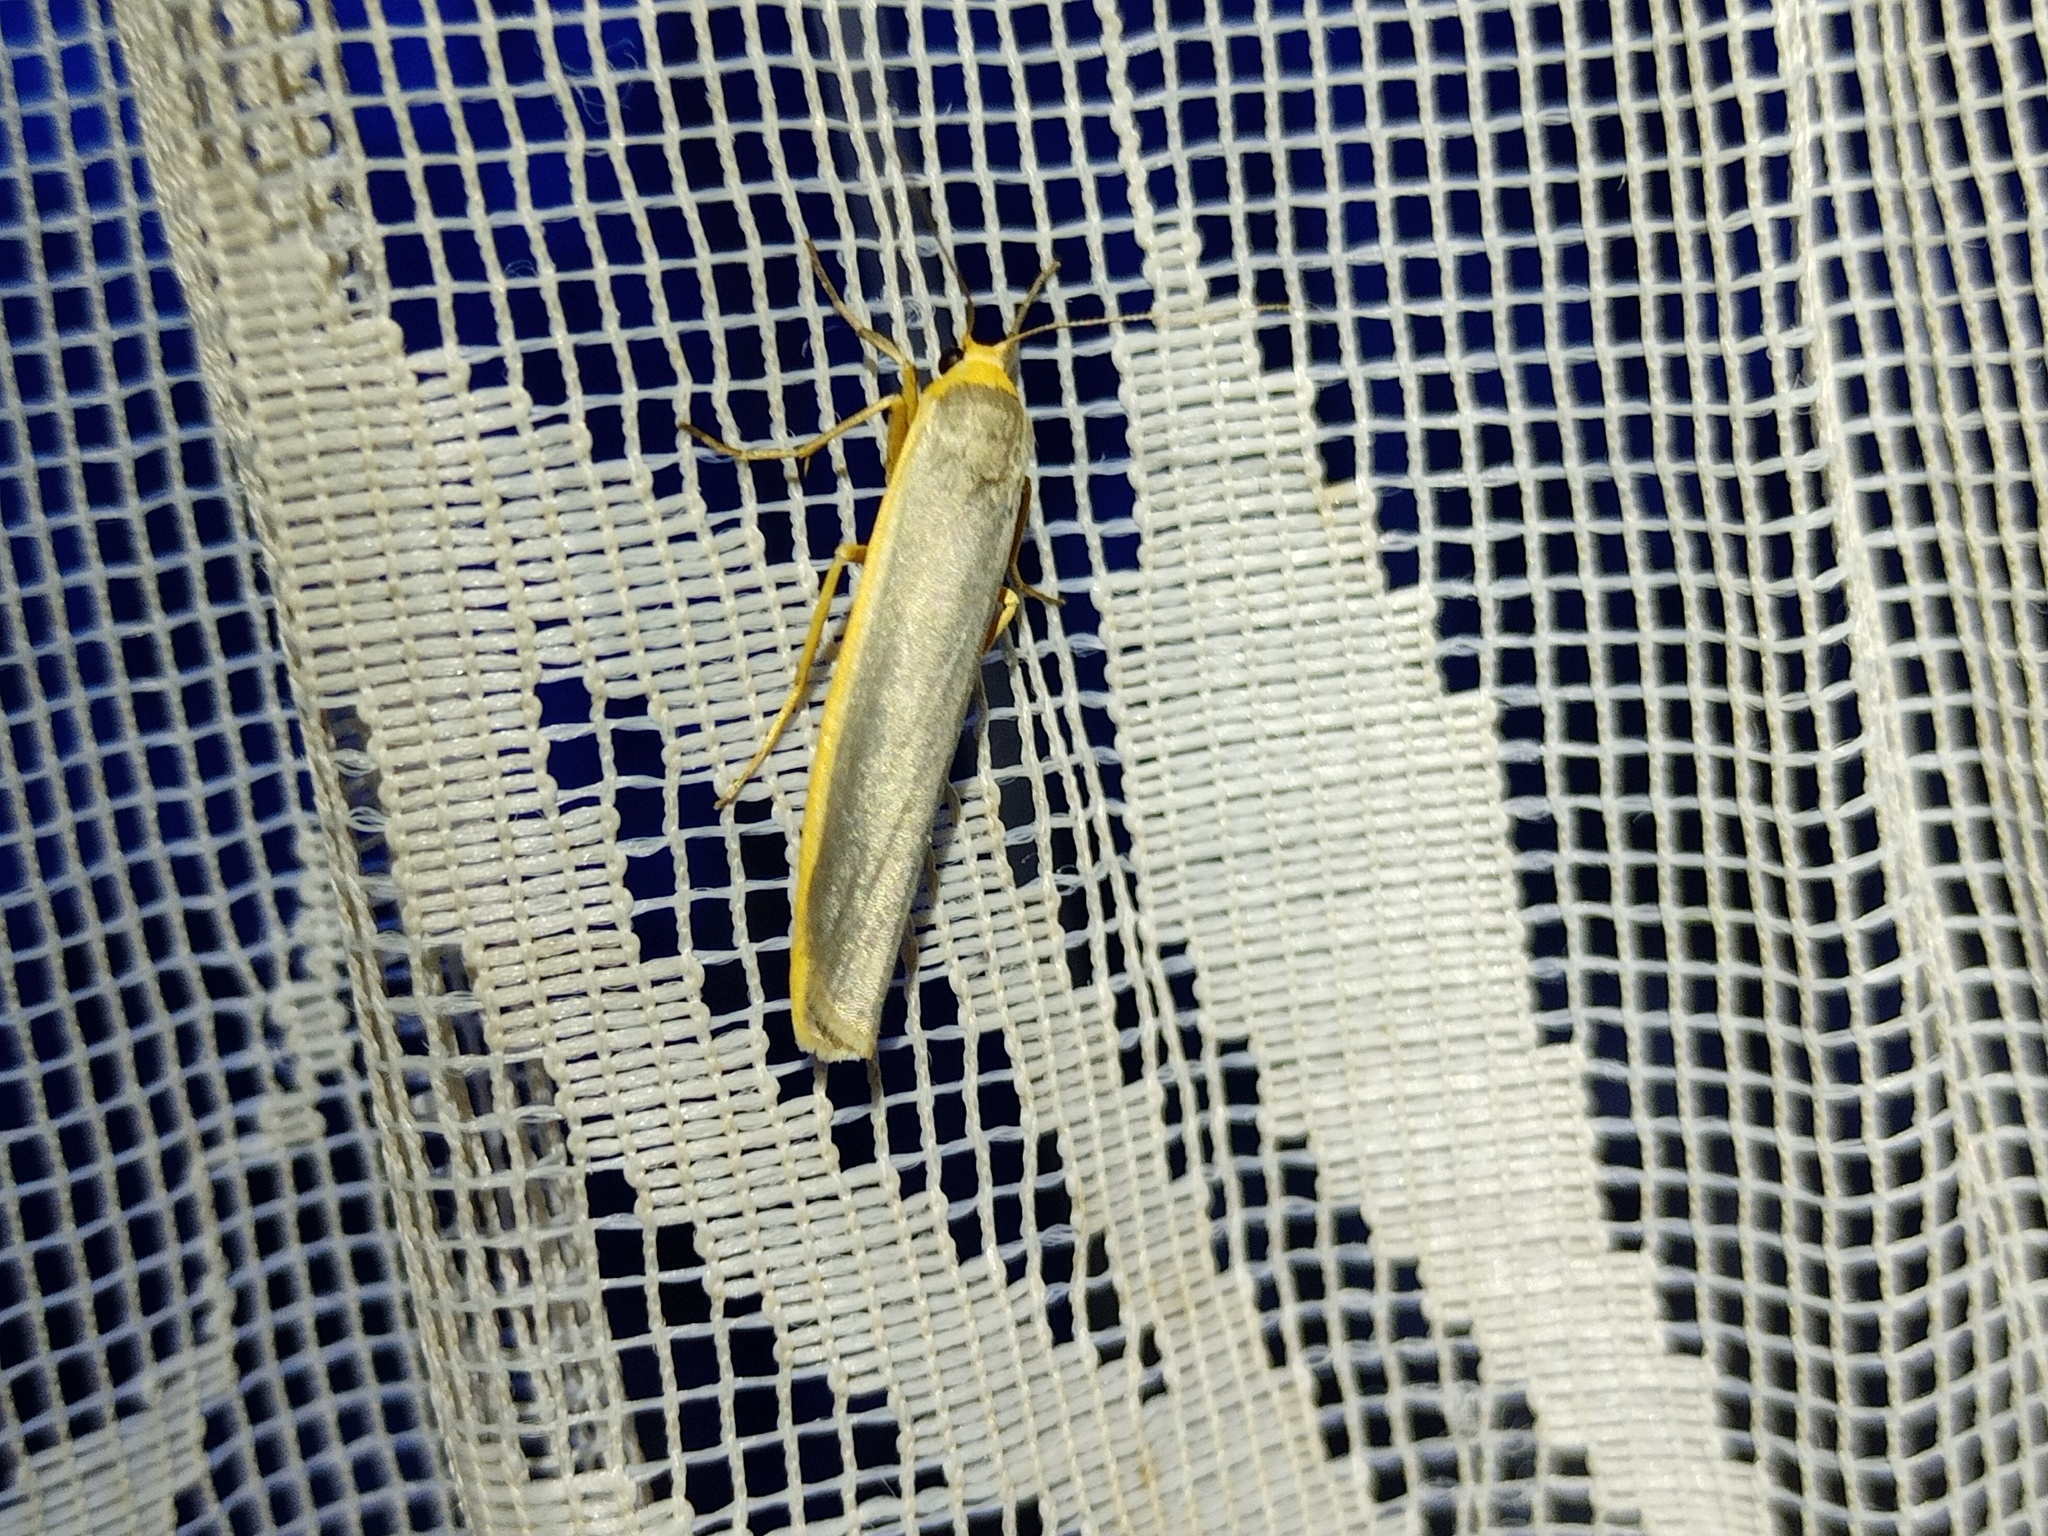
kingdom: Animalia
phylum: Arthropoda
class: Insecta
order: Lepidoptera
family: Erebidae
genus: Manulea
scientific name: Manulea complana
